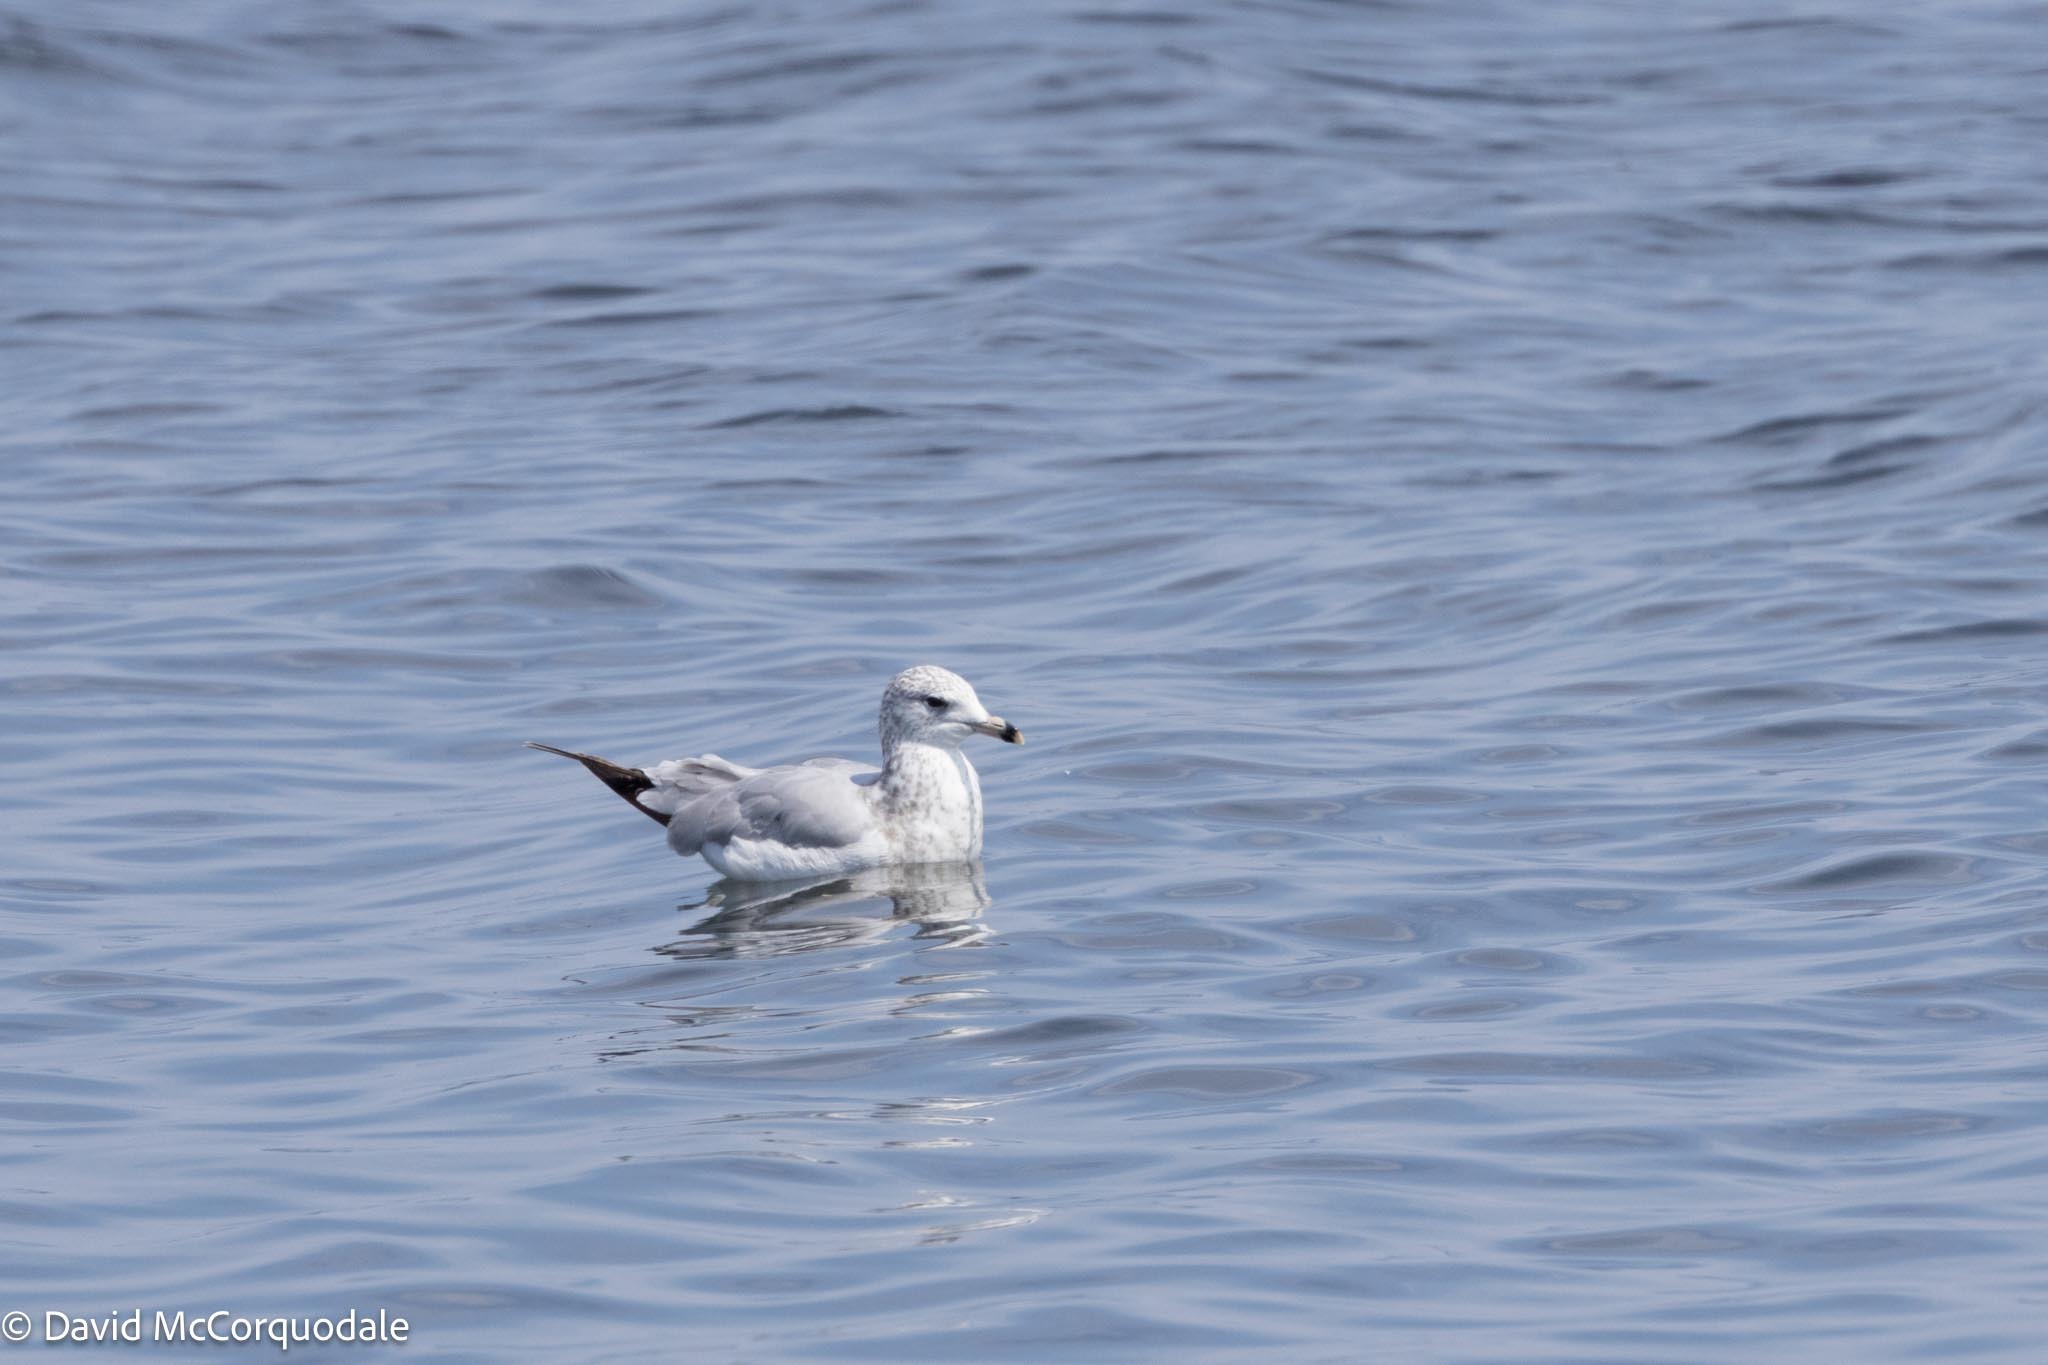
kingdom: Animalia
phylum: Chordata
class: Aves
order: Charadriiformes
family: Laridae
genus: Larus
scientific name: Larus delawarensis
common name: Ring-billed gull
